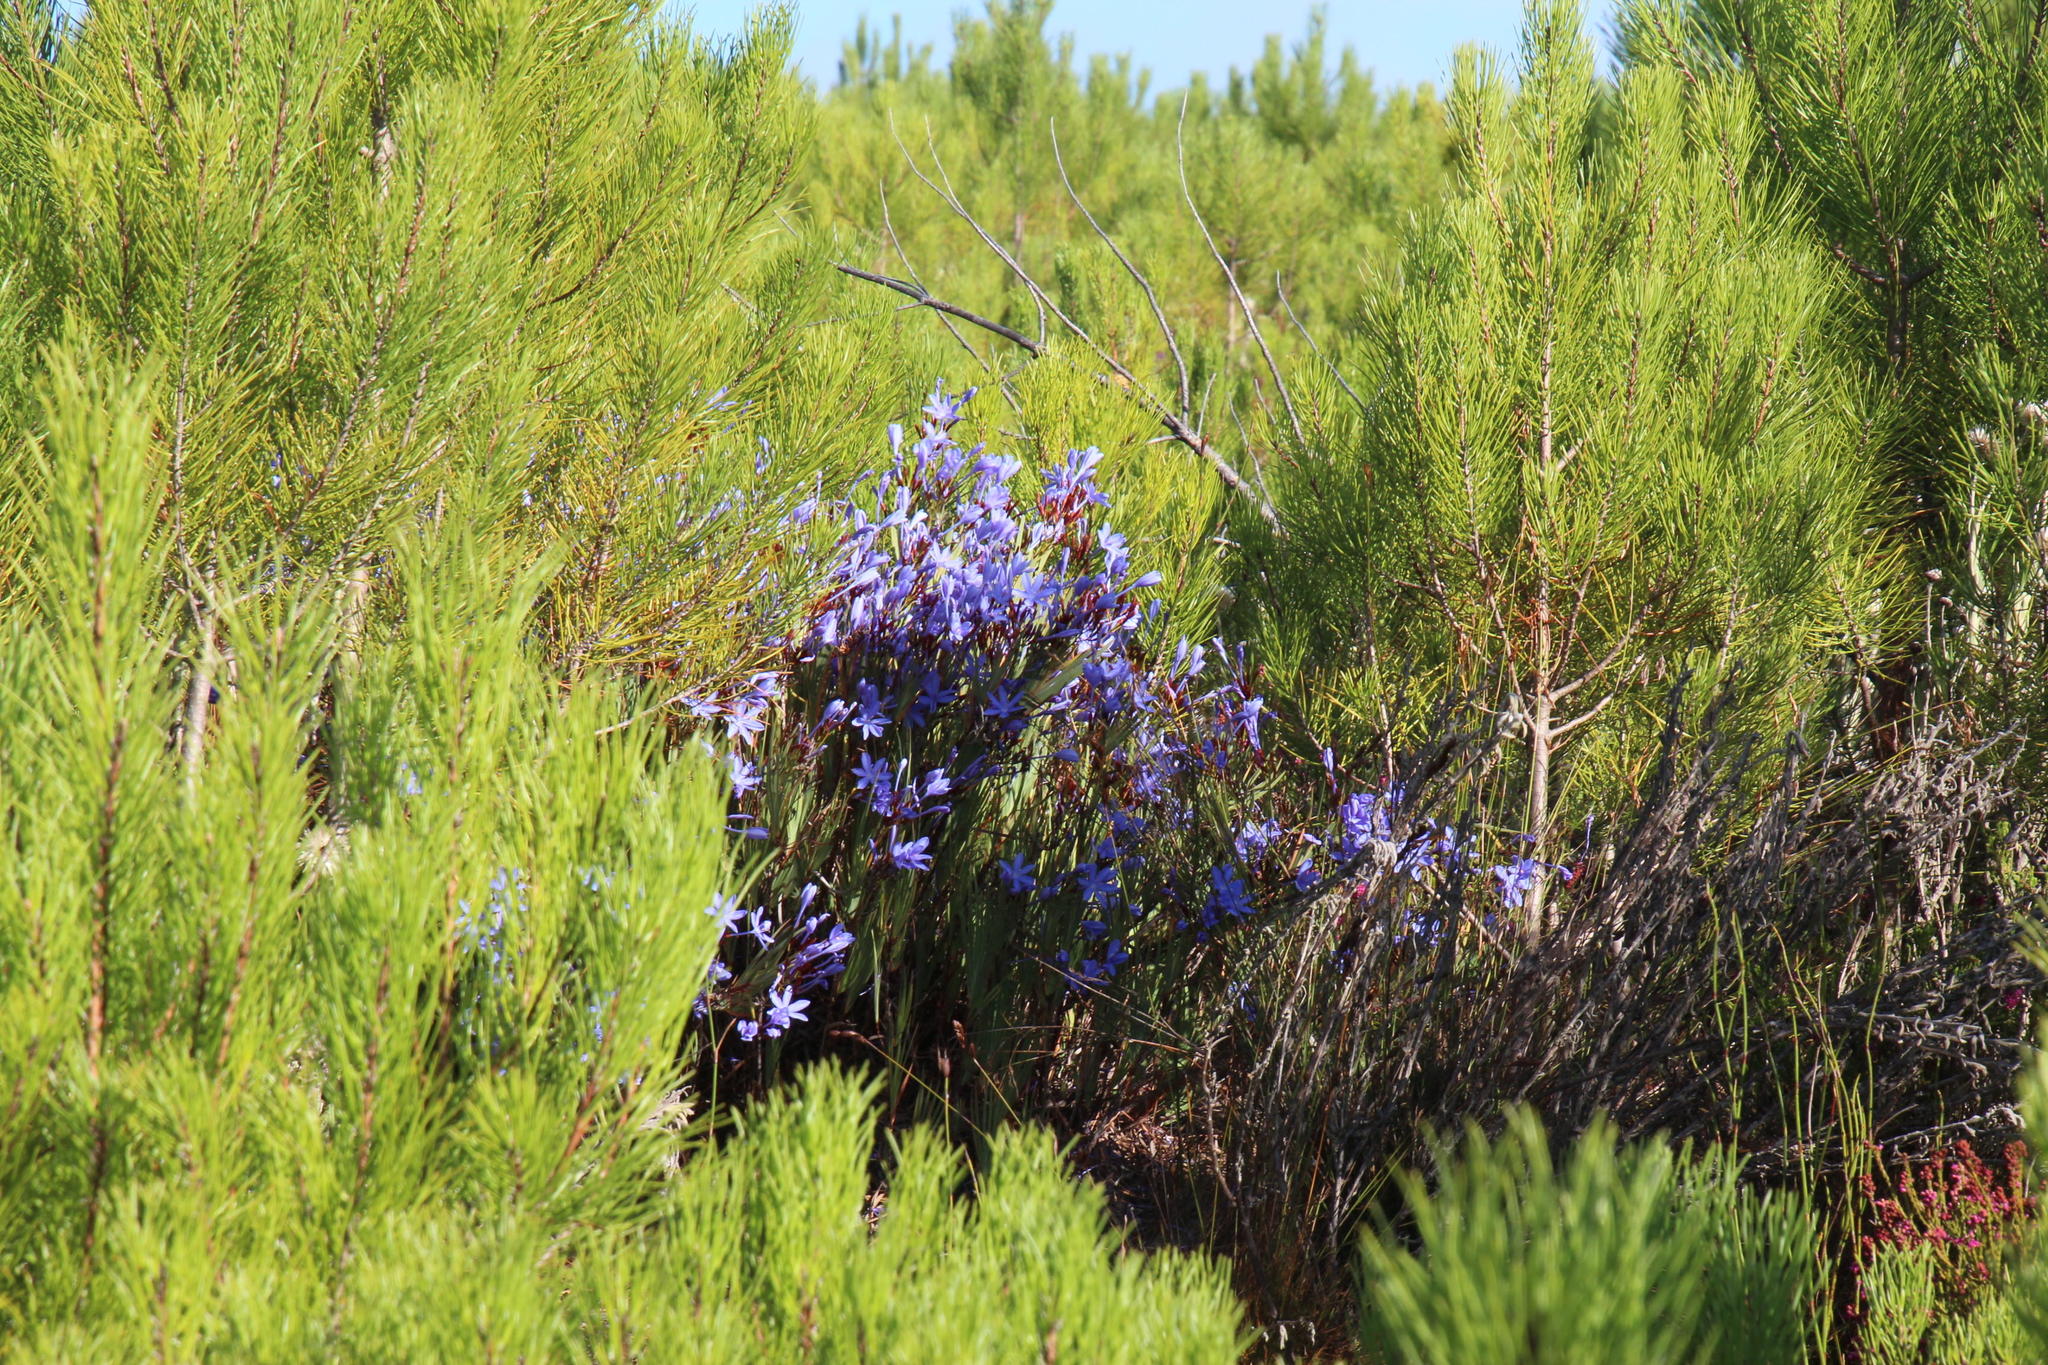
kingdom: Plantae
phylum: Tracheophyta
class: Liliopsida
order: Asparagales
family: Iridaceae
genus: Nivenia
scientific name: Nivenia stokoei
